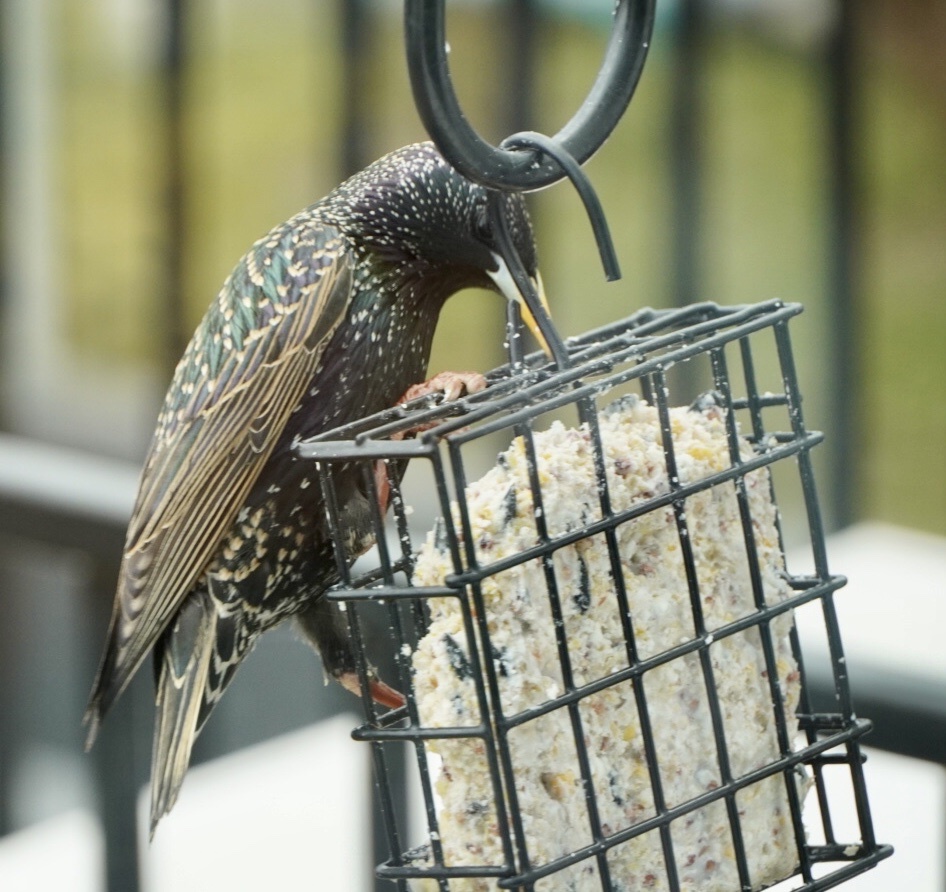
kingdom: Animalia
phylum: Chordata
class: Aves
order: Passeriformes
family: Sturnidae
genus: Sturnus
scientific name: Sturnus vulgaris
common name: Common starling
